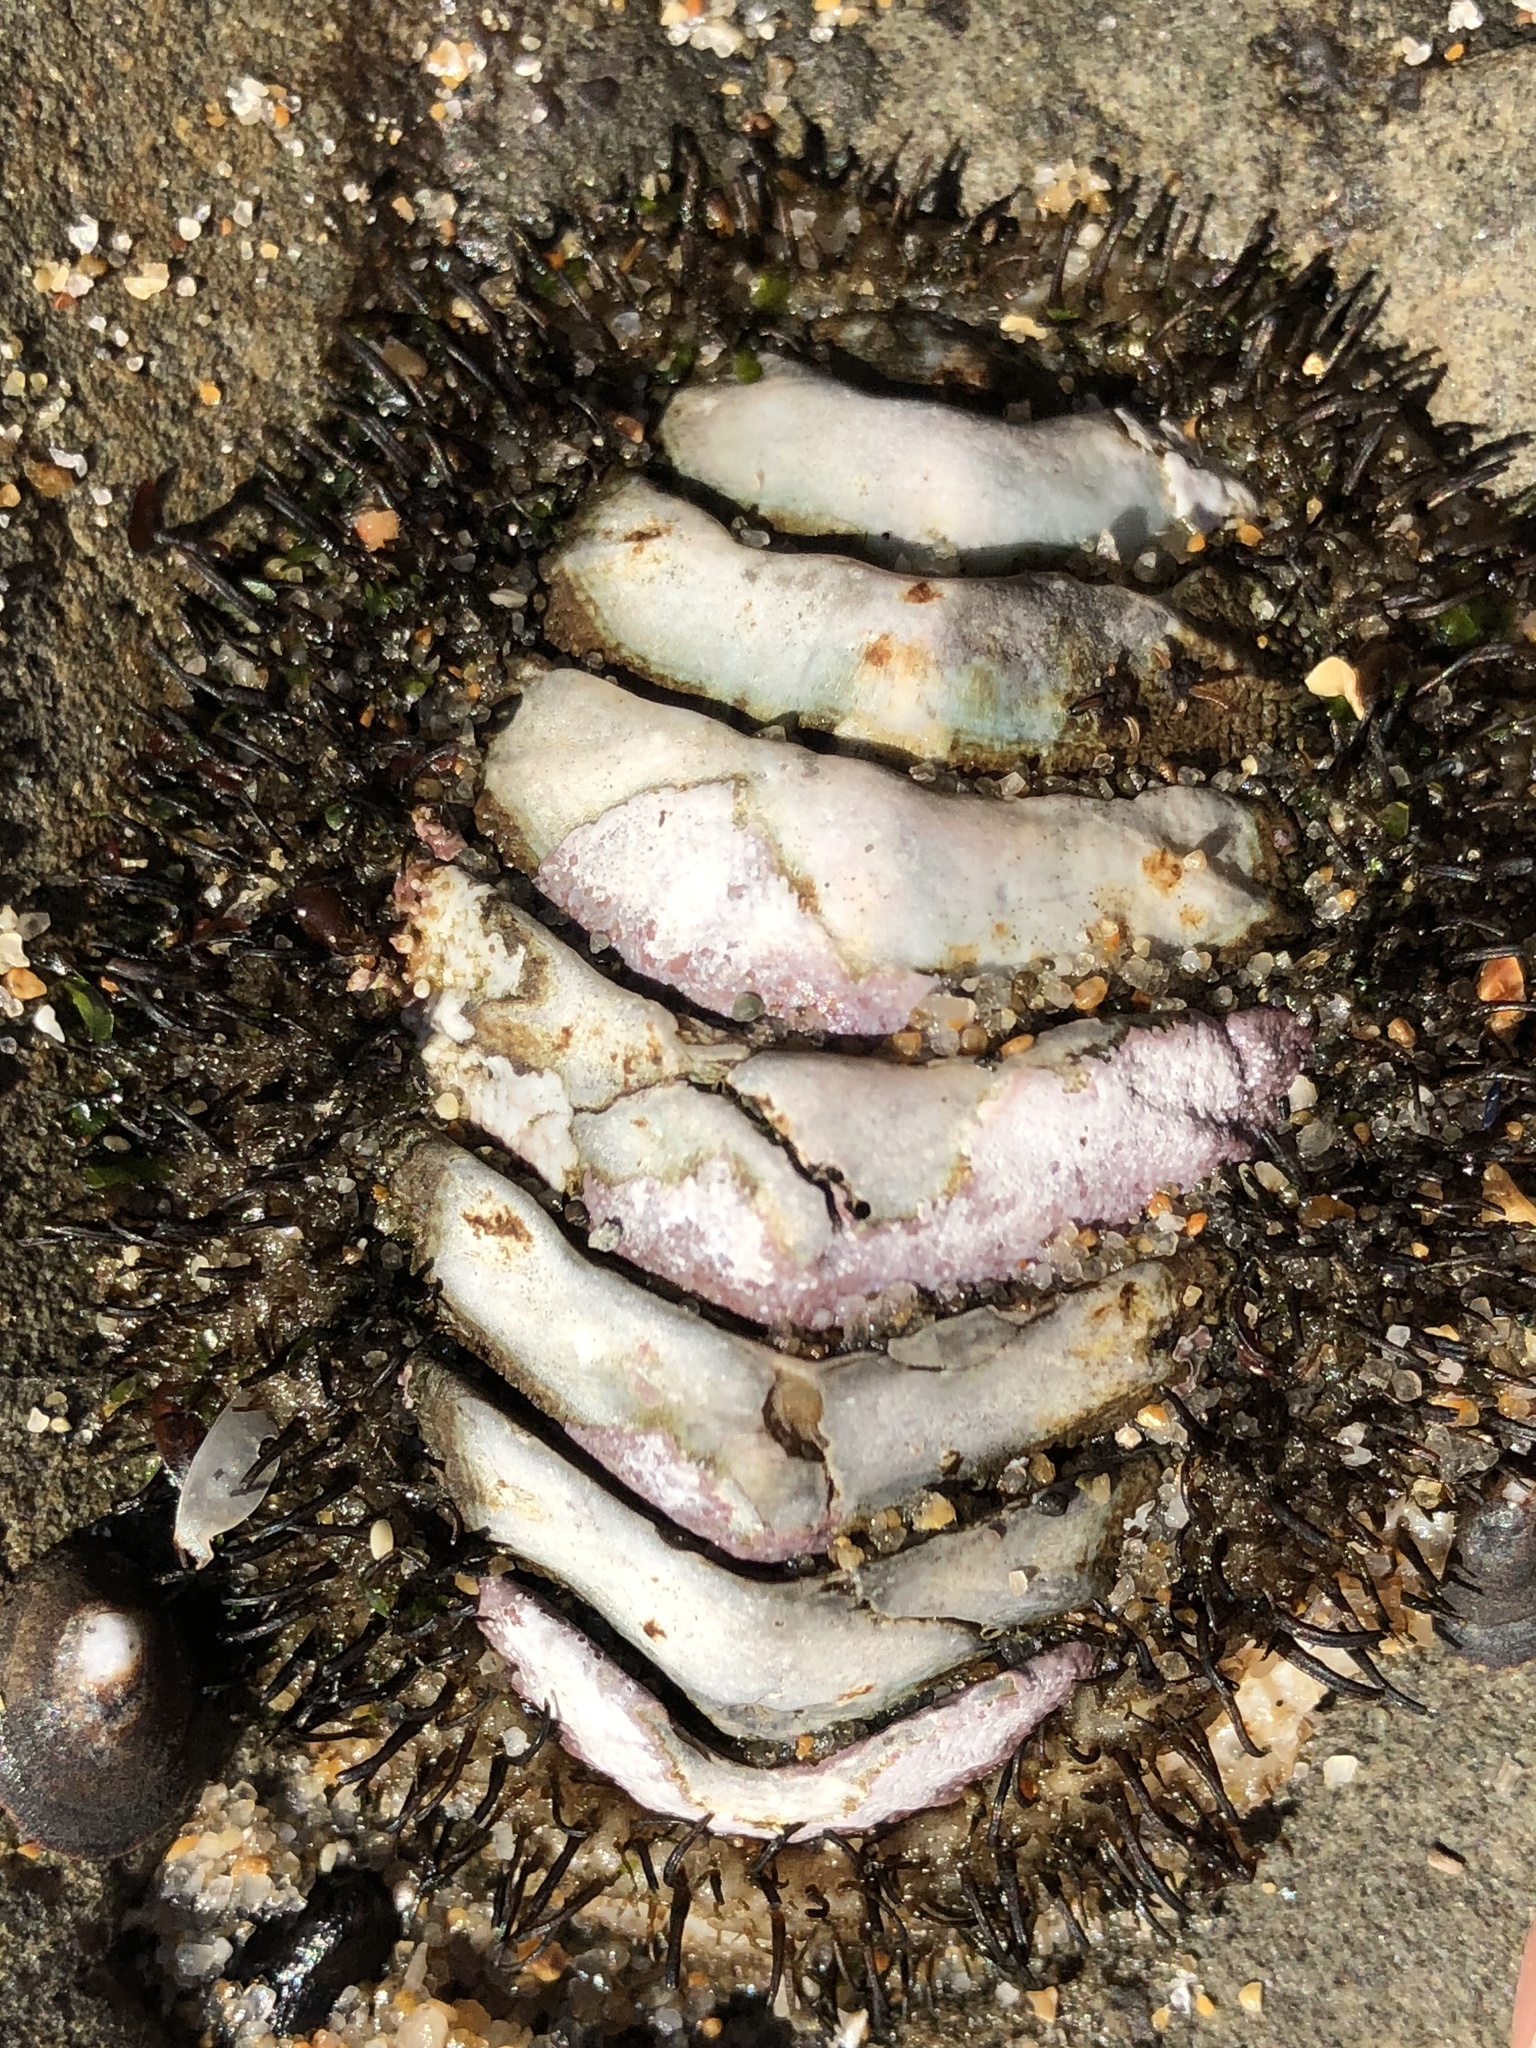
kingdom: Animalia
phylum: Mollusca
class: Polyplacophora
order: Chitonida
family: Mopaliidae
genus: Mopalia
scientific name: Mopalia muscosa
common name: Mossy chiton
